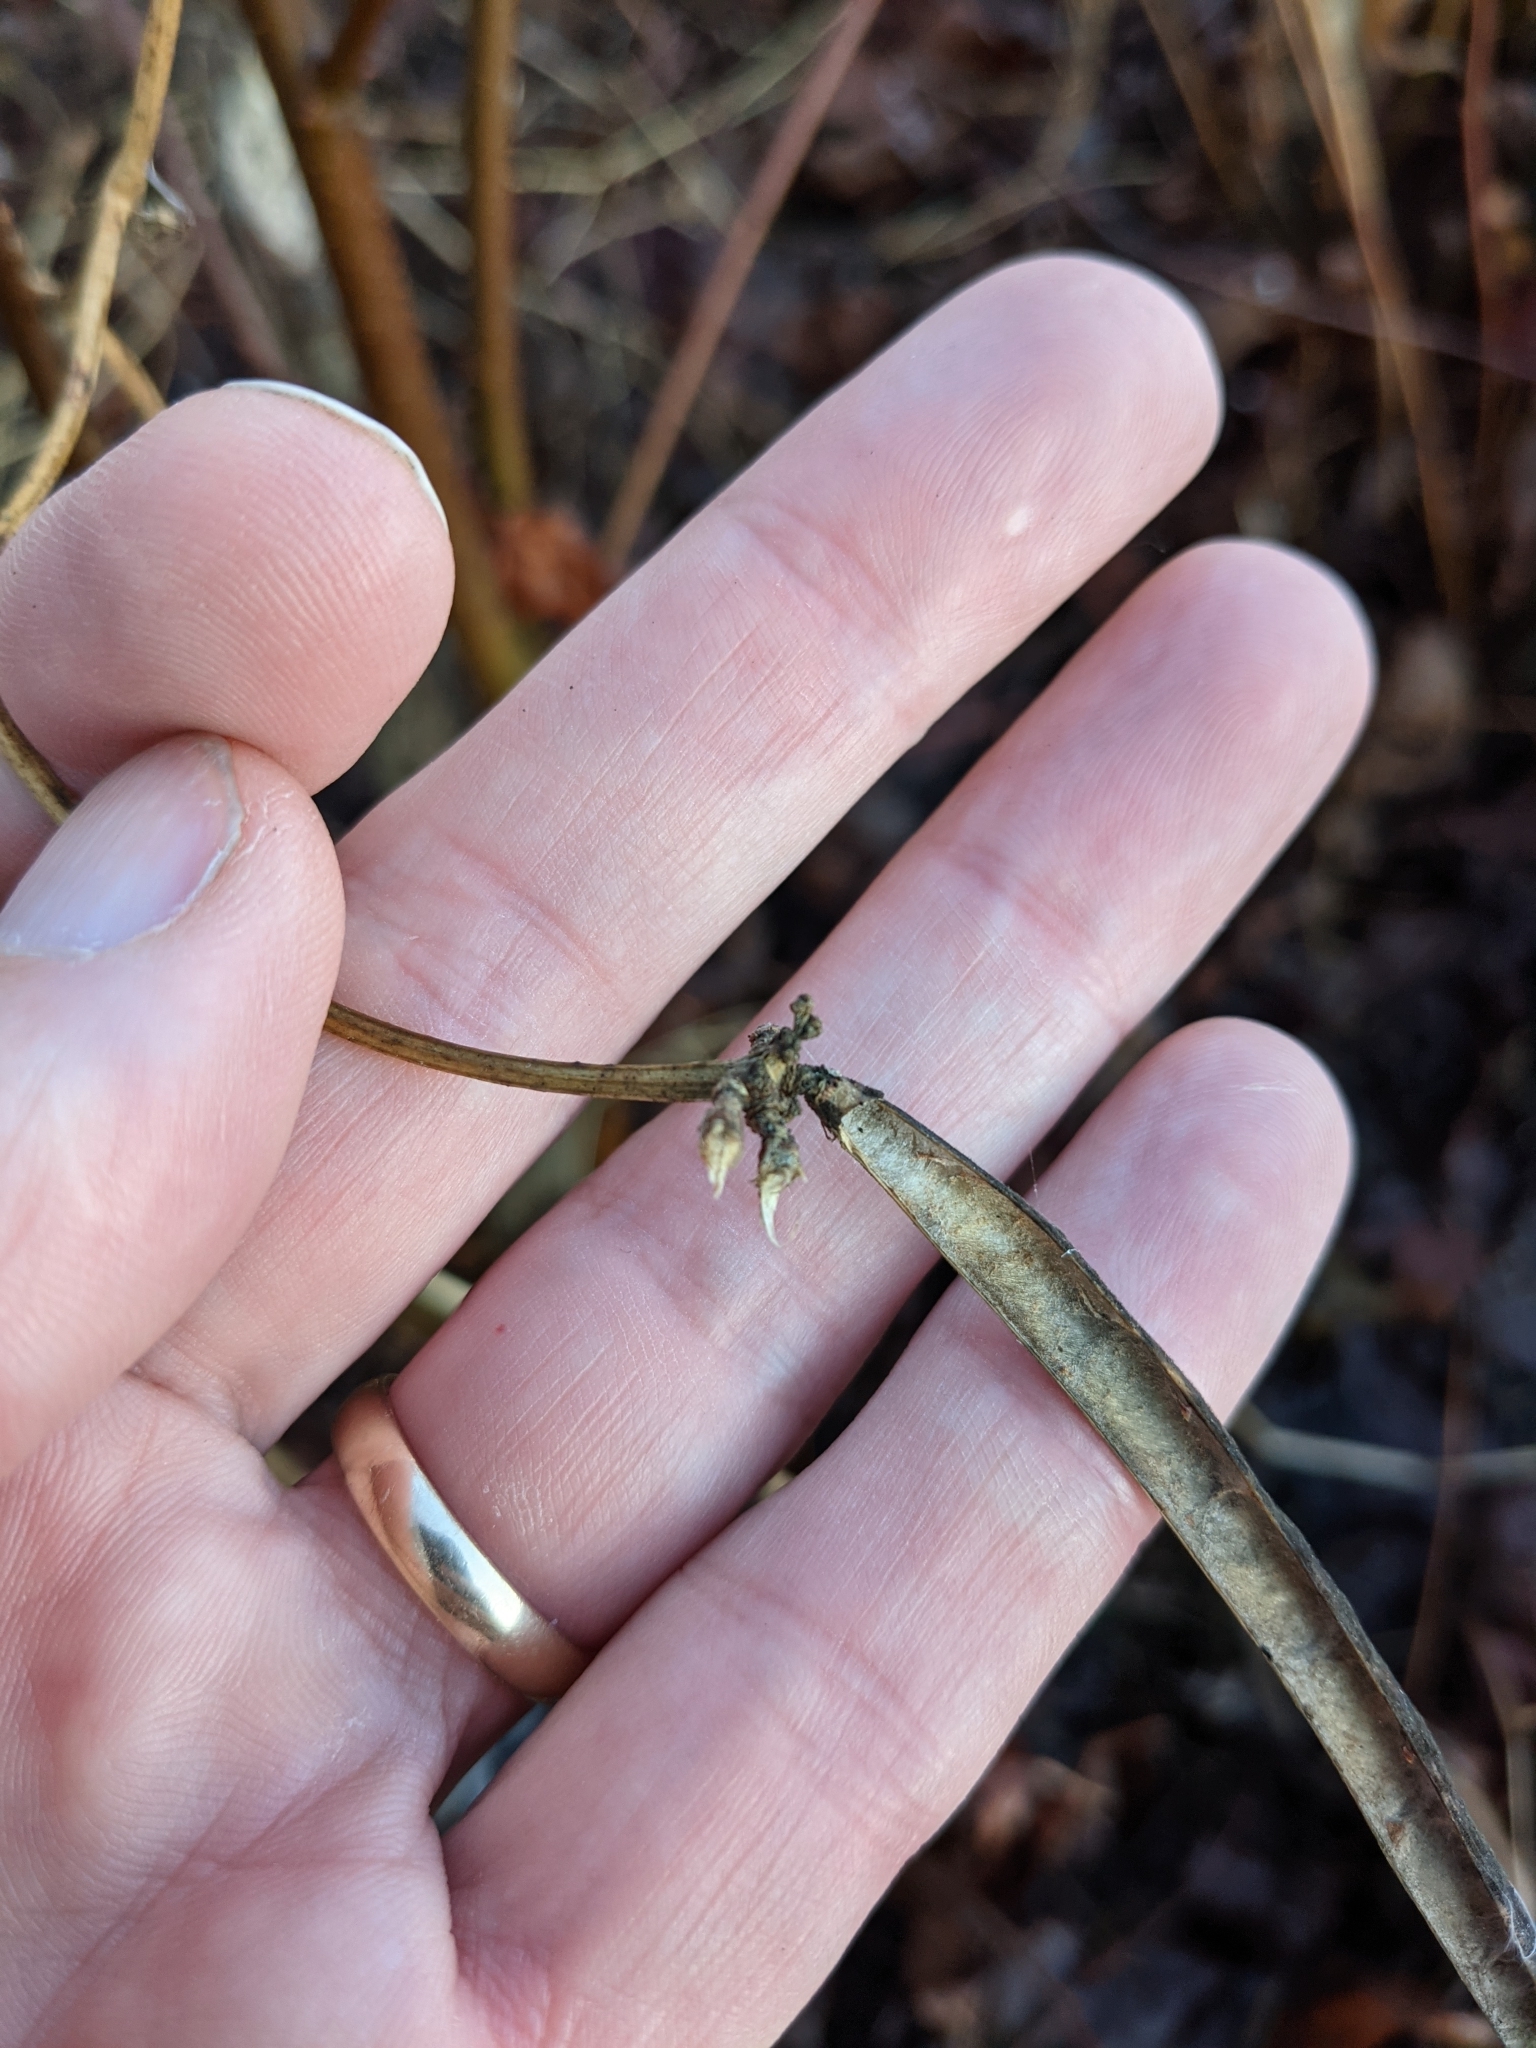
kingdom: Plantae
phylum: Tracheophyta
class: Magnoliopsida
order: Fabales
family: Fabaceae
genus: Apios
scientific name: Apios americana
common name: American potato-bean
